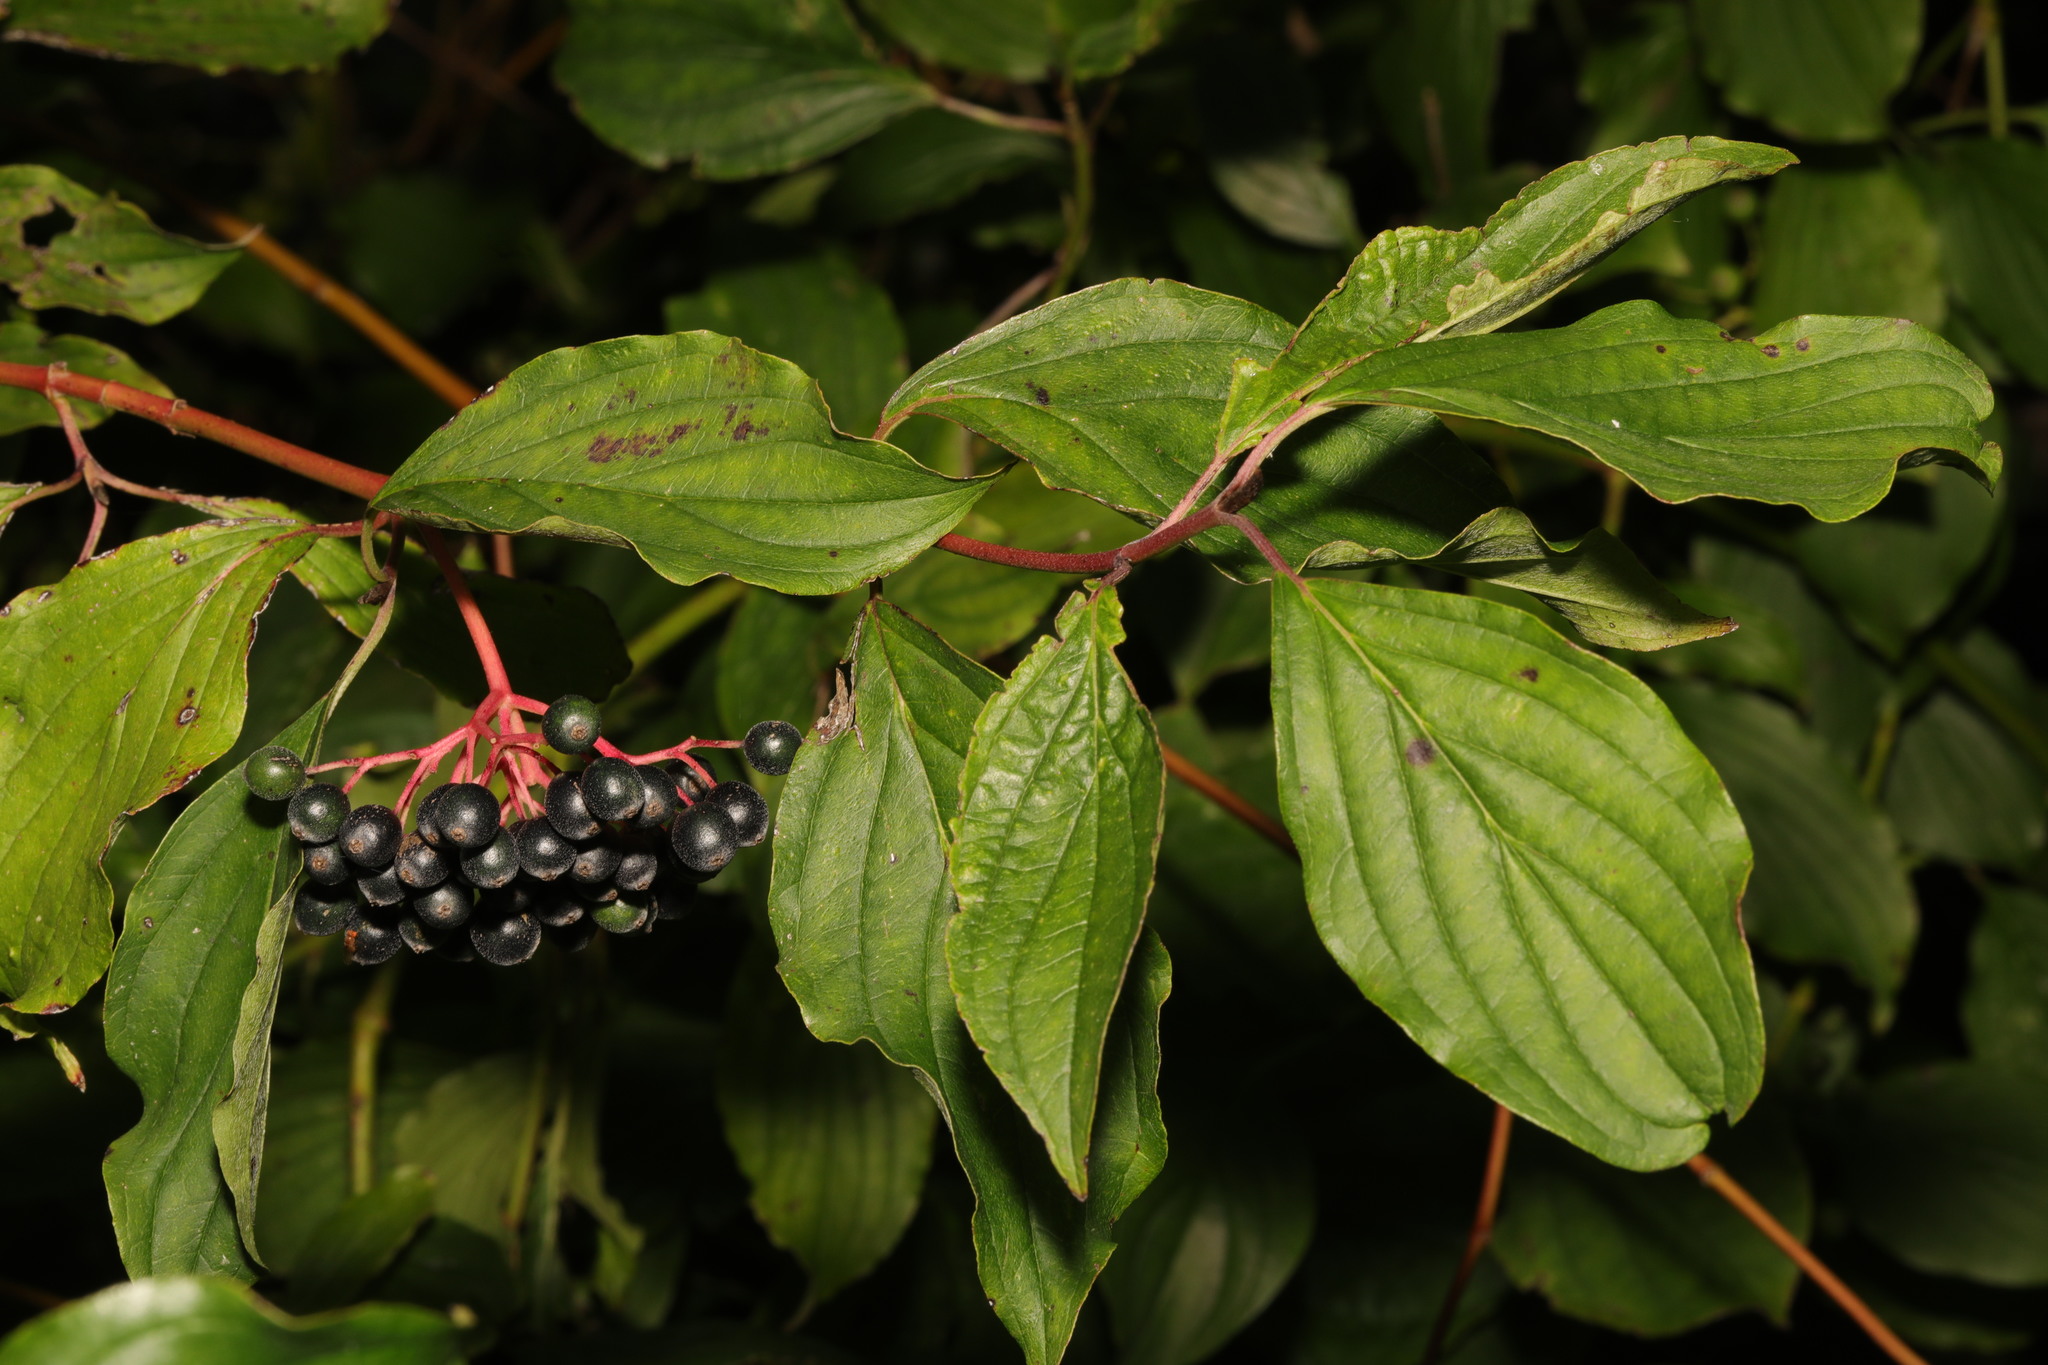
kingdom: Plantae
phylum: Tracheophyta
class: Magnoliopsida
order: Cornales
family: Cornaceae
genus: Cornus
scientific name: Cornus sanguinea
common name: Dogwood
